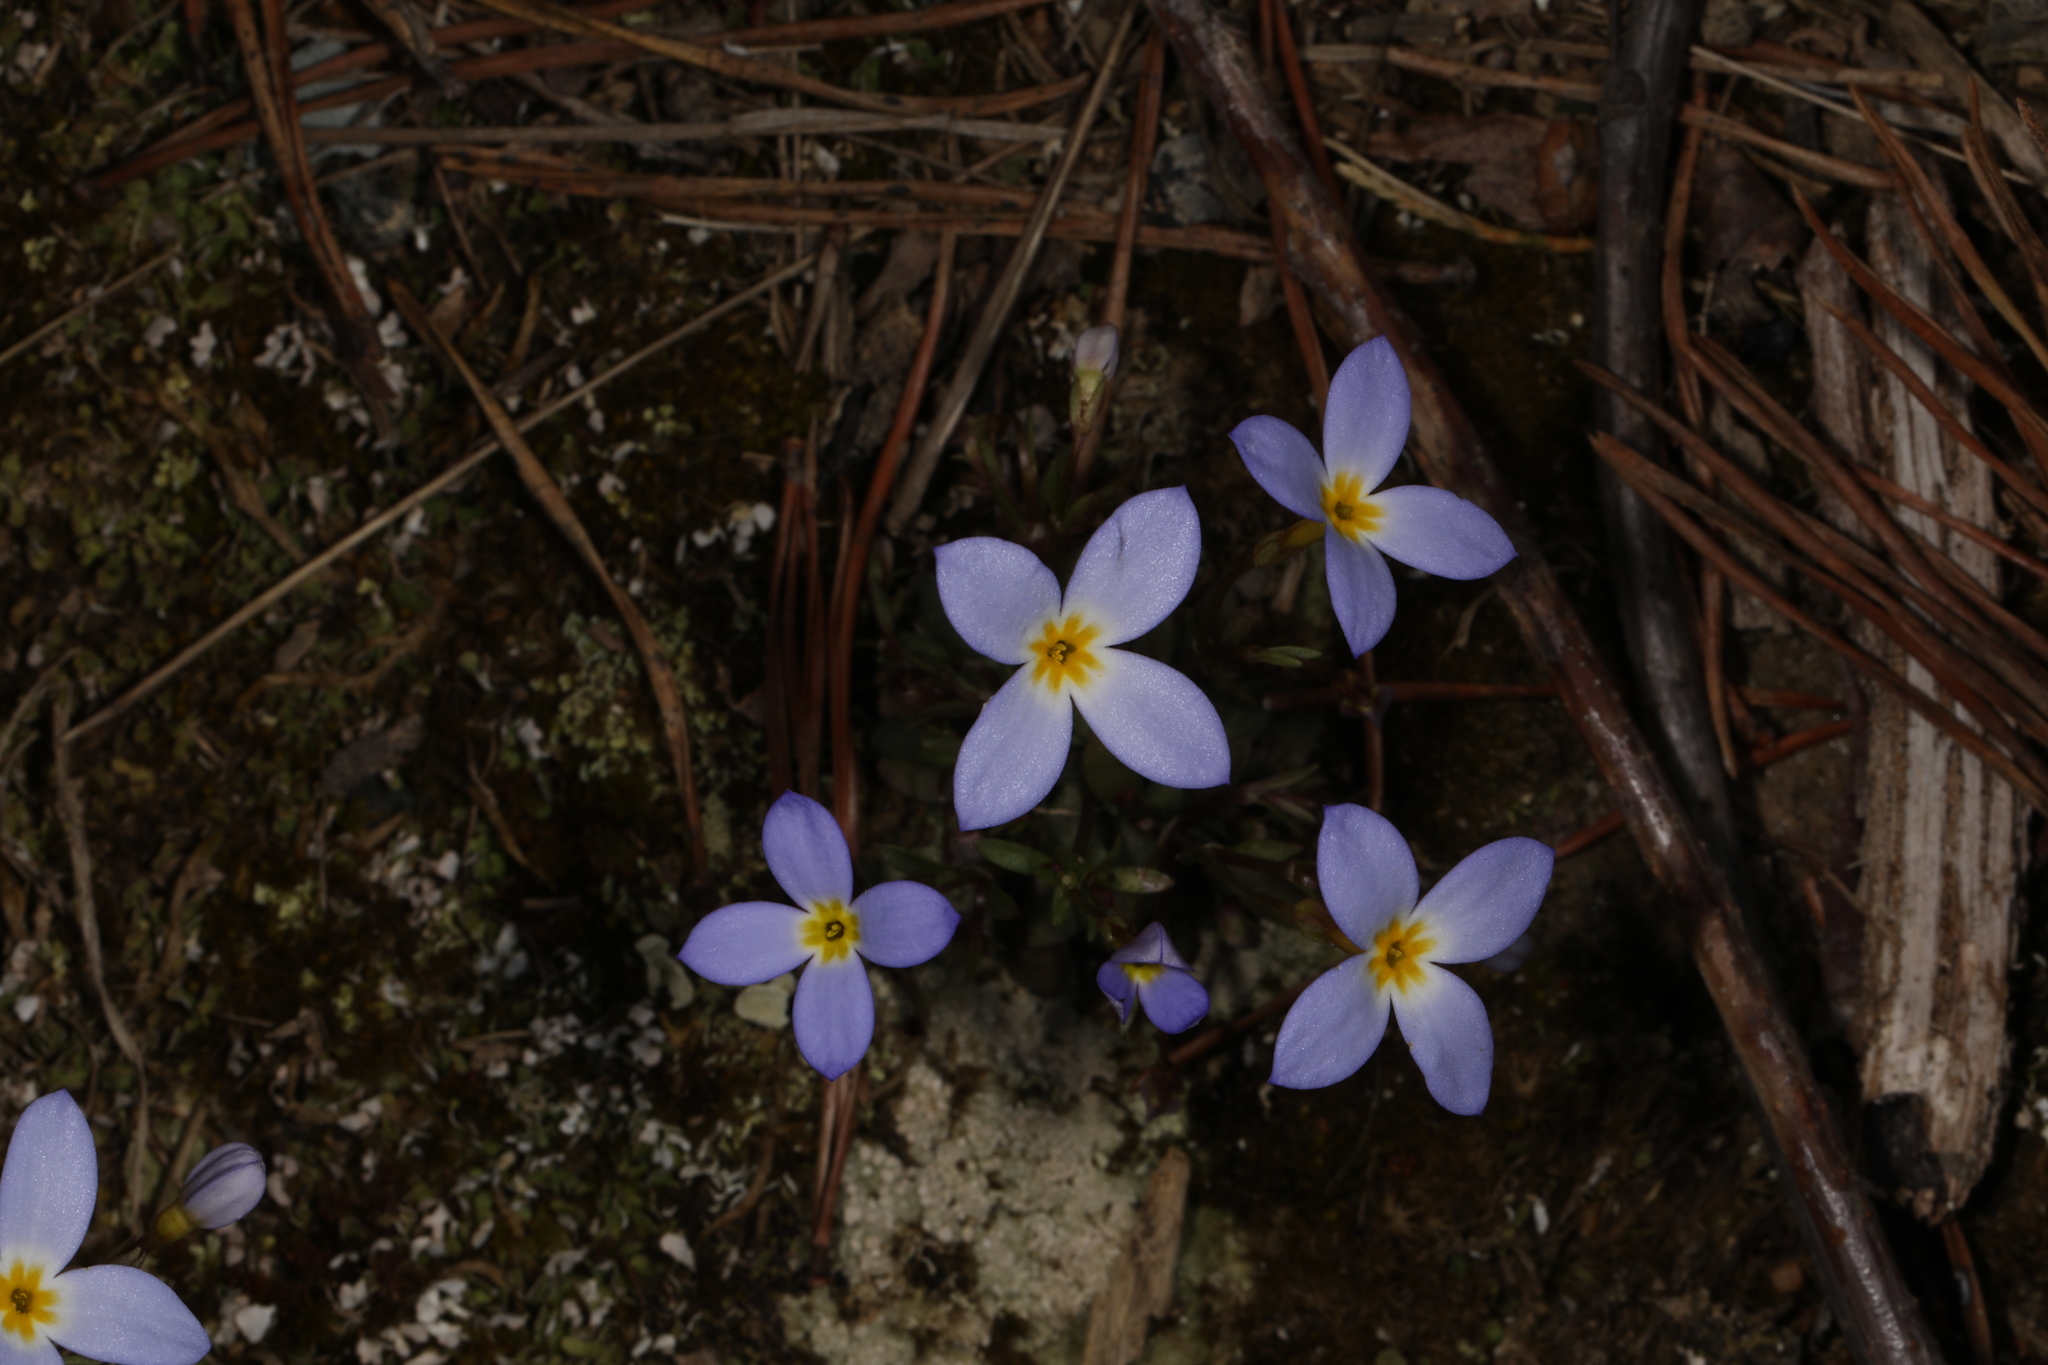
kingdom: Plantae
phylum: Tracheophyta
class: Magnoliopsida
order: Gentianales
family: Rubiaceae
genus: Houstonia
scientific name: Houstonia caerulea
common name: Bluets
